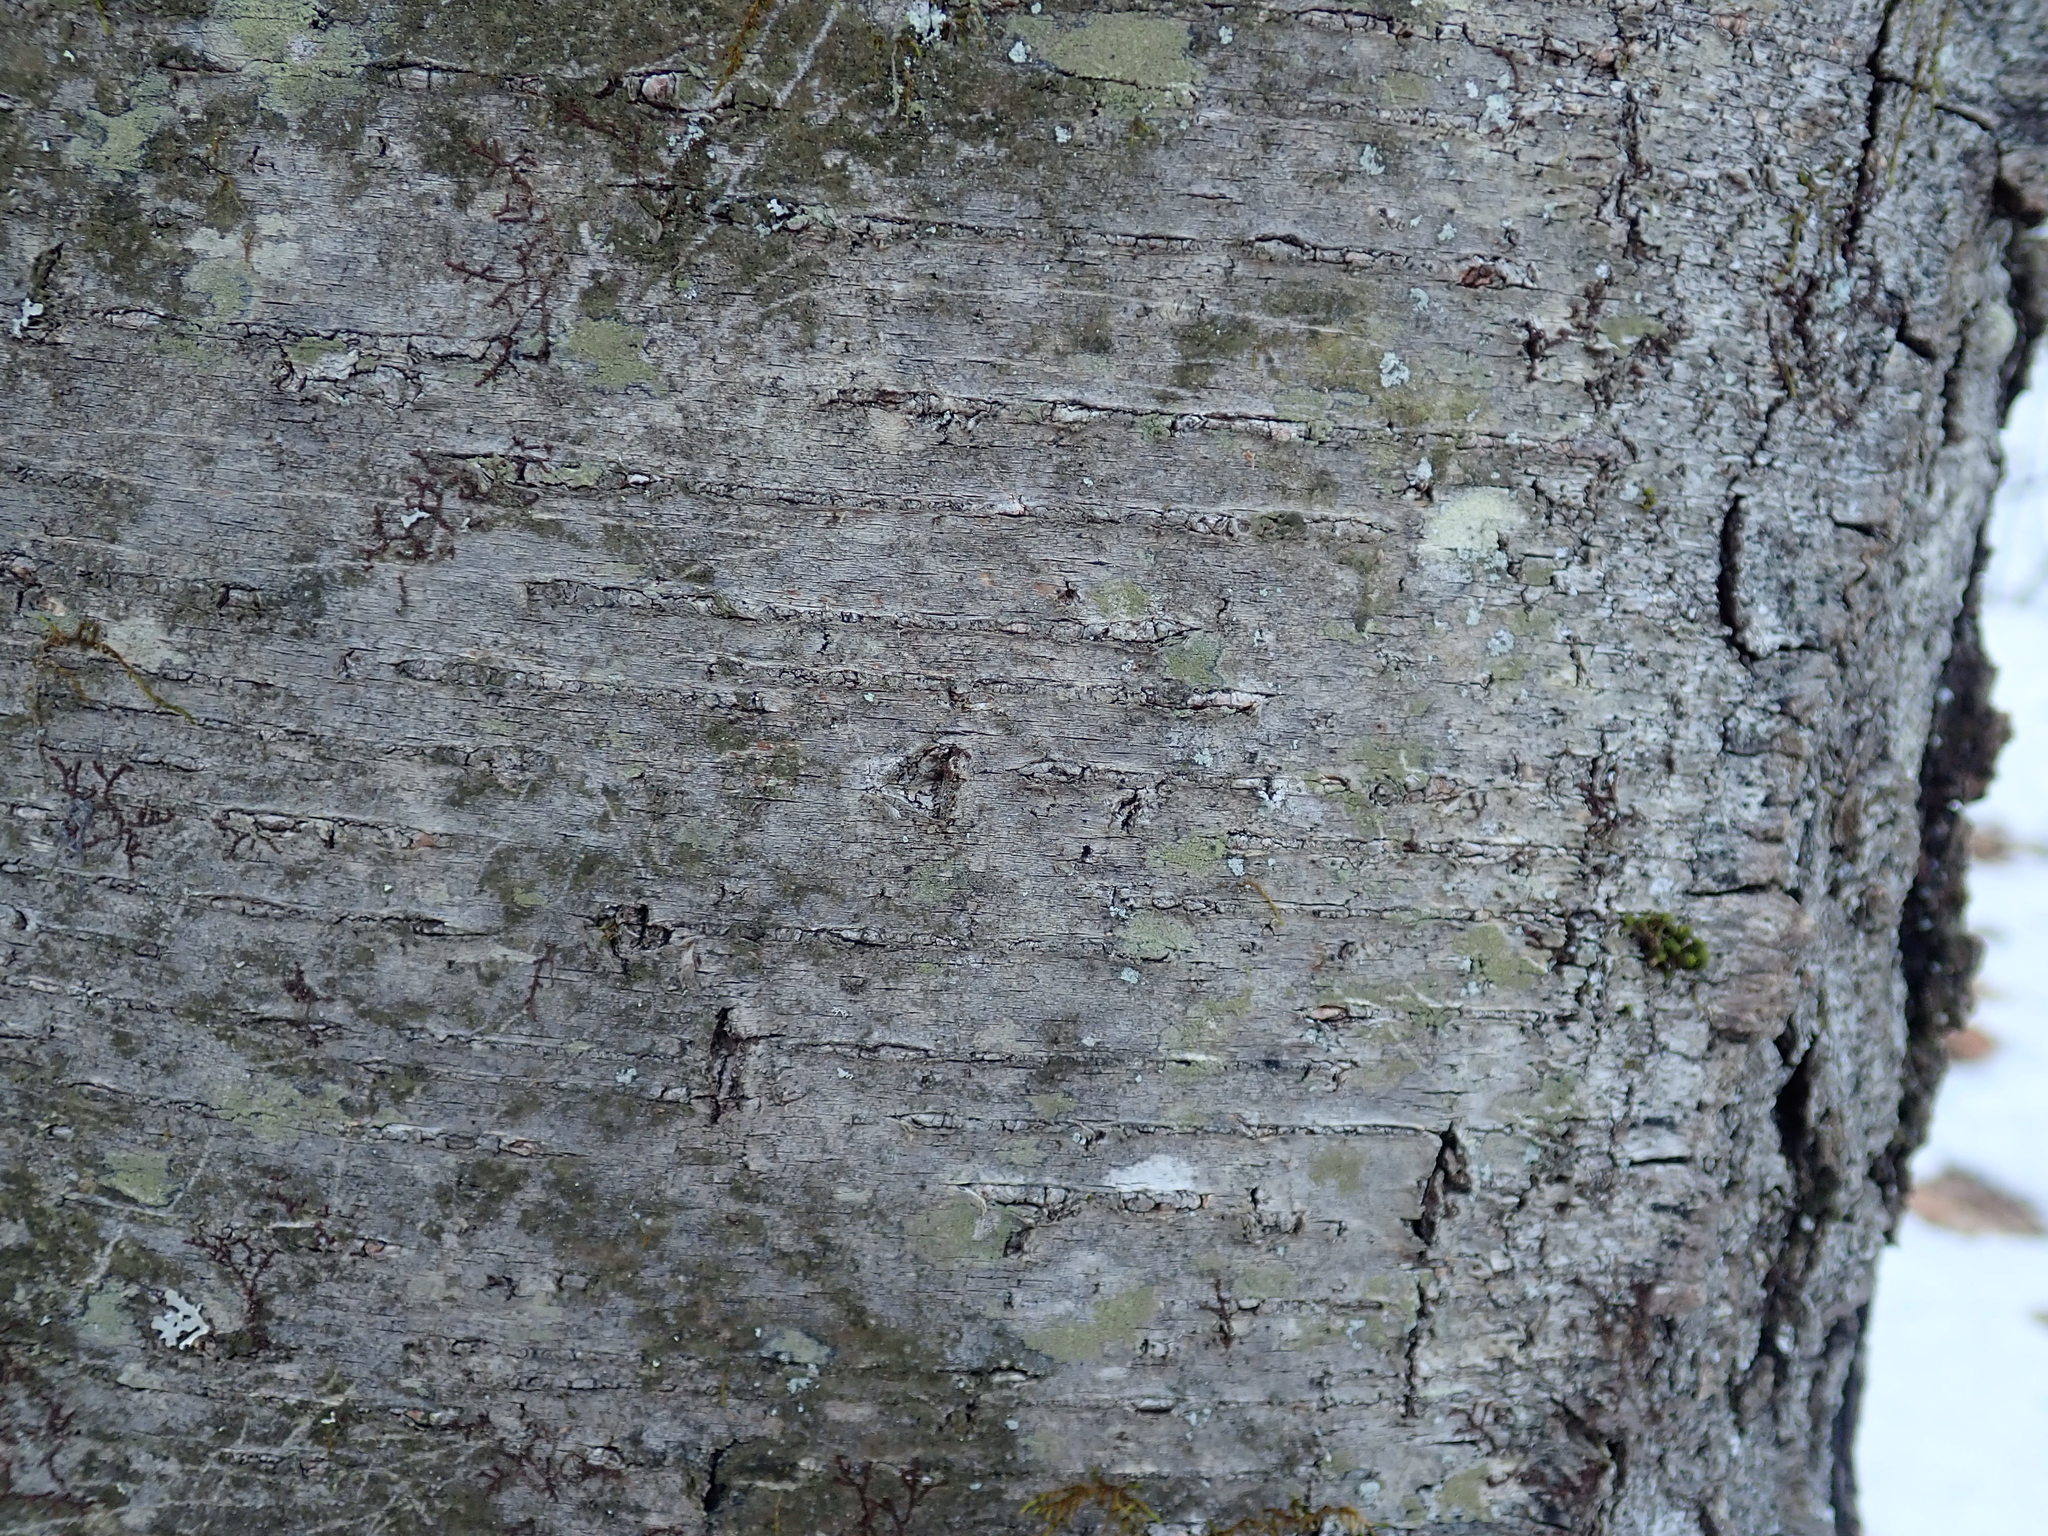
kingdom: Plantae
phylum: Tracheophyta
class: Magnoliopsida
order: Fagales
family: Betulaceae
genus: Betula
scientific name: Betula lenta
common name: Black birch
